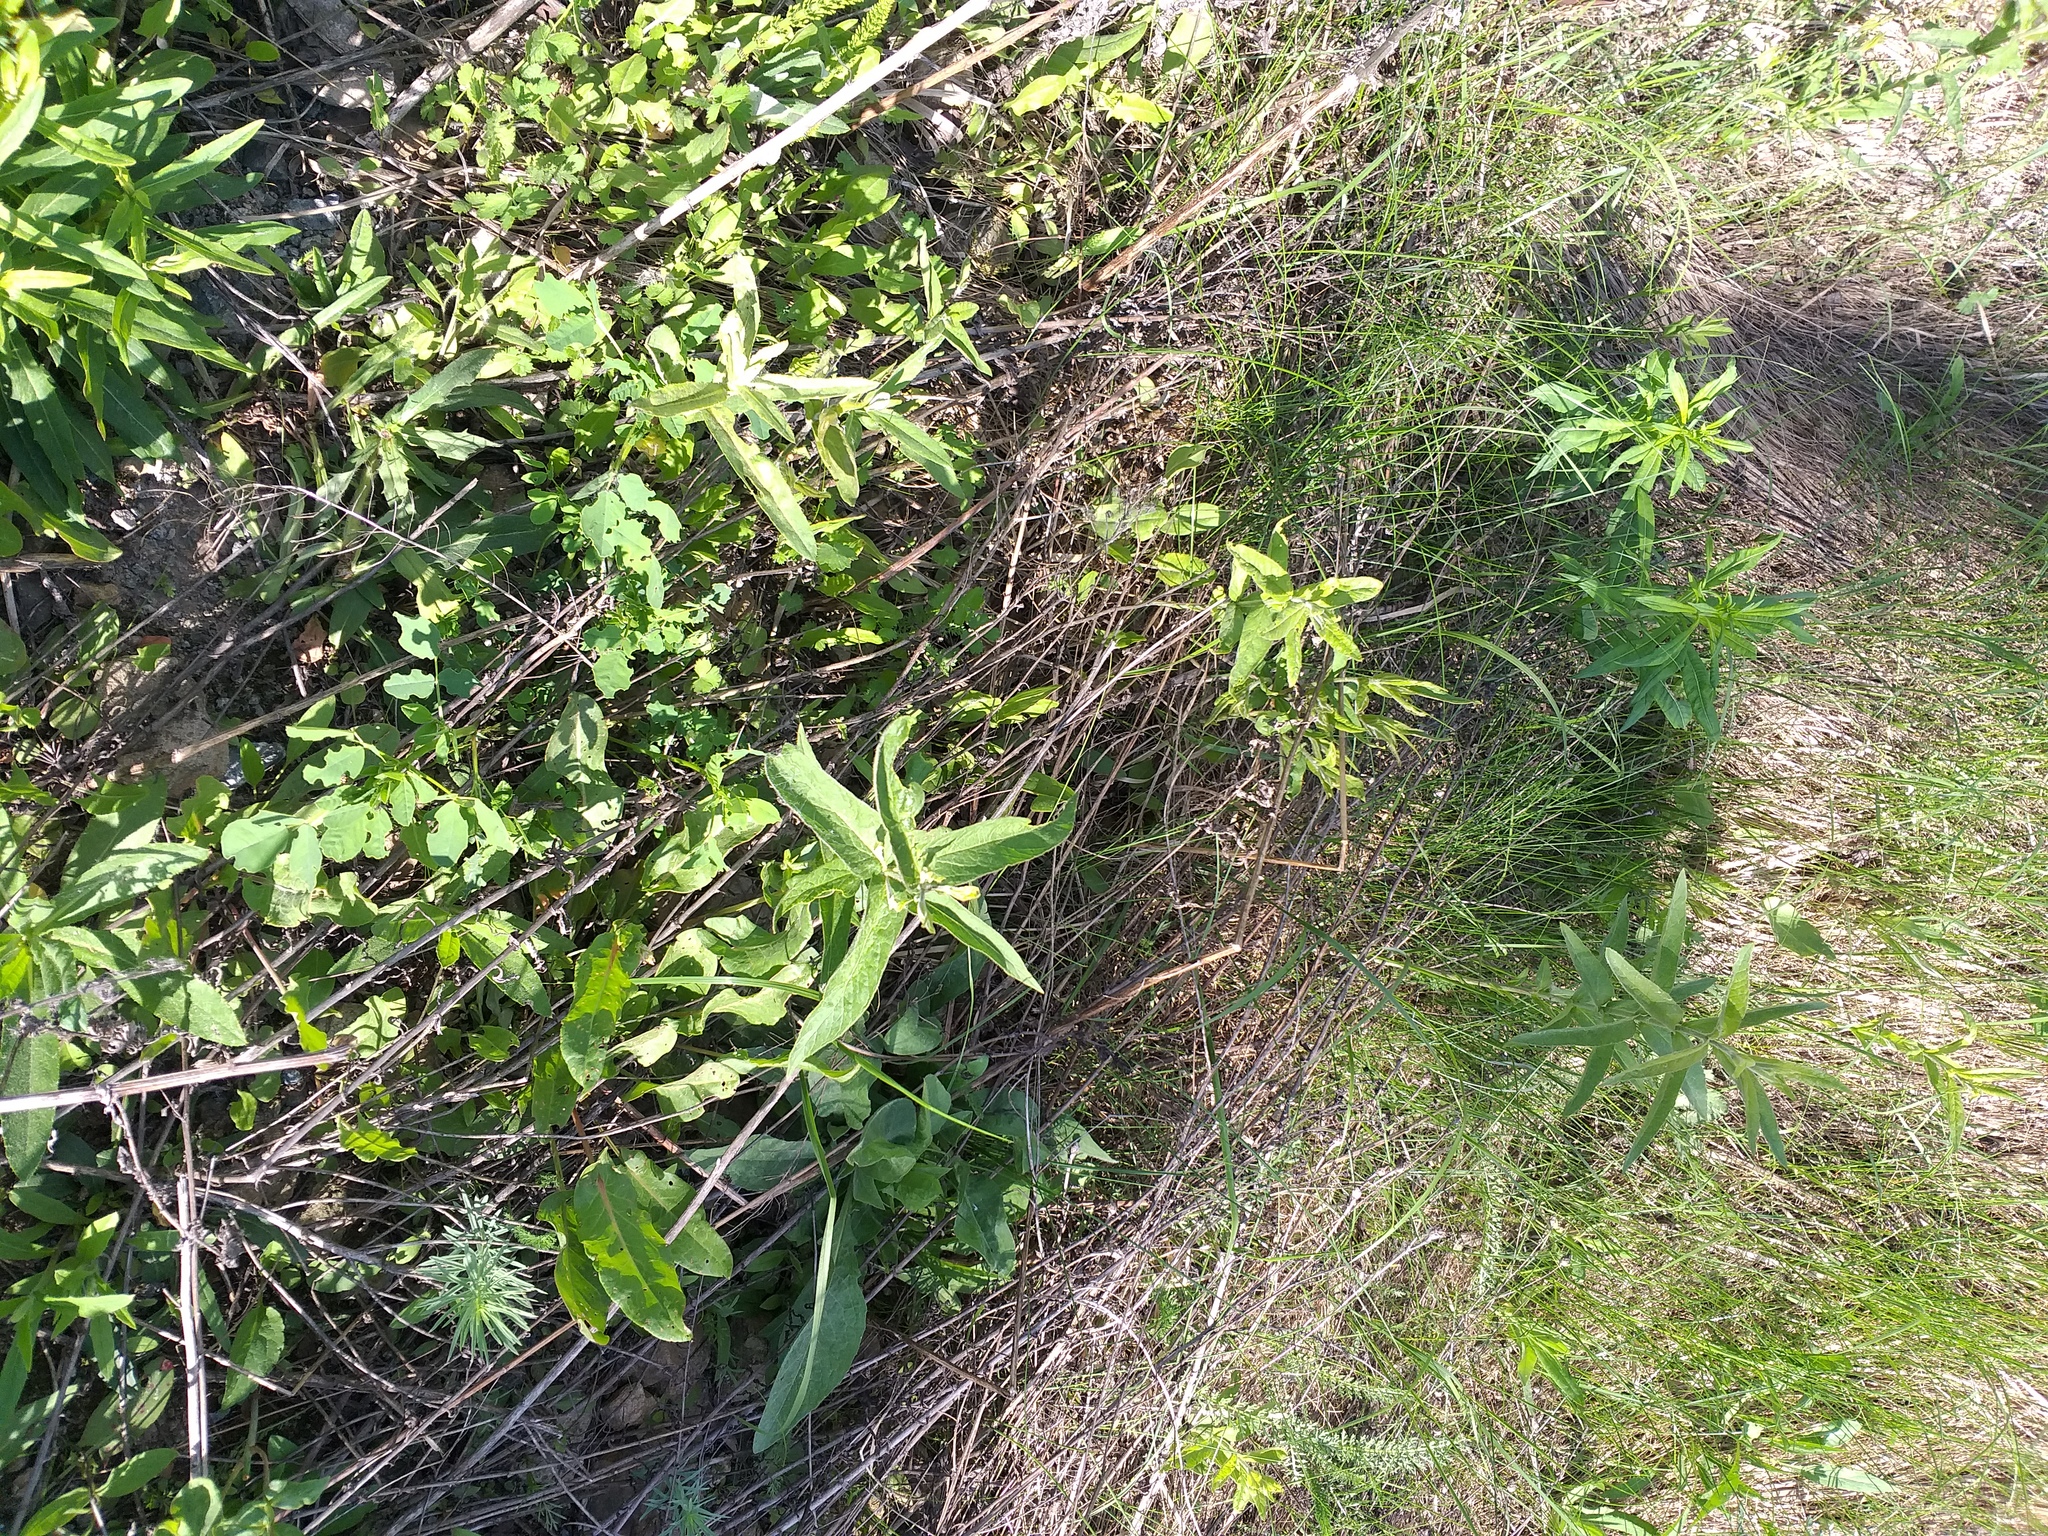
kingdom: Plantae
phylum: Tracheophyta
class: Magnoliopsida
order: Ericales
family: Primulaceae
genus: Lysimachia
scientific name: Lysimachia vulgaris
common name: Yellow loosestrife
